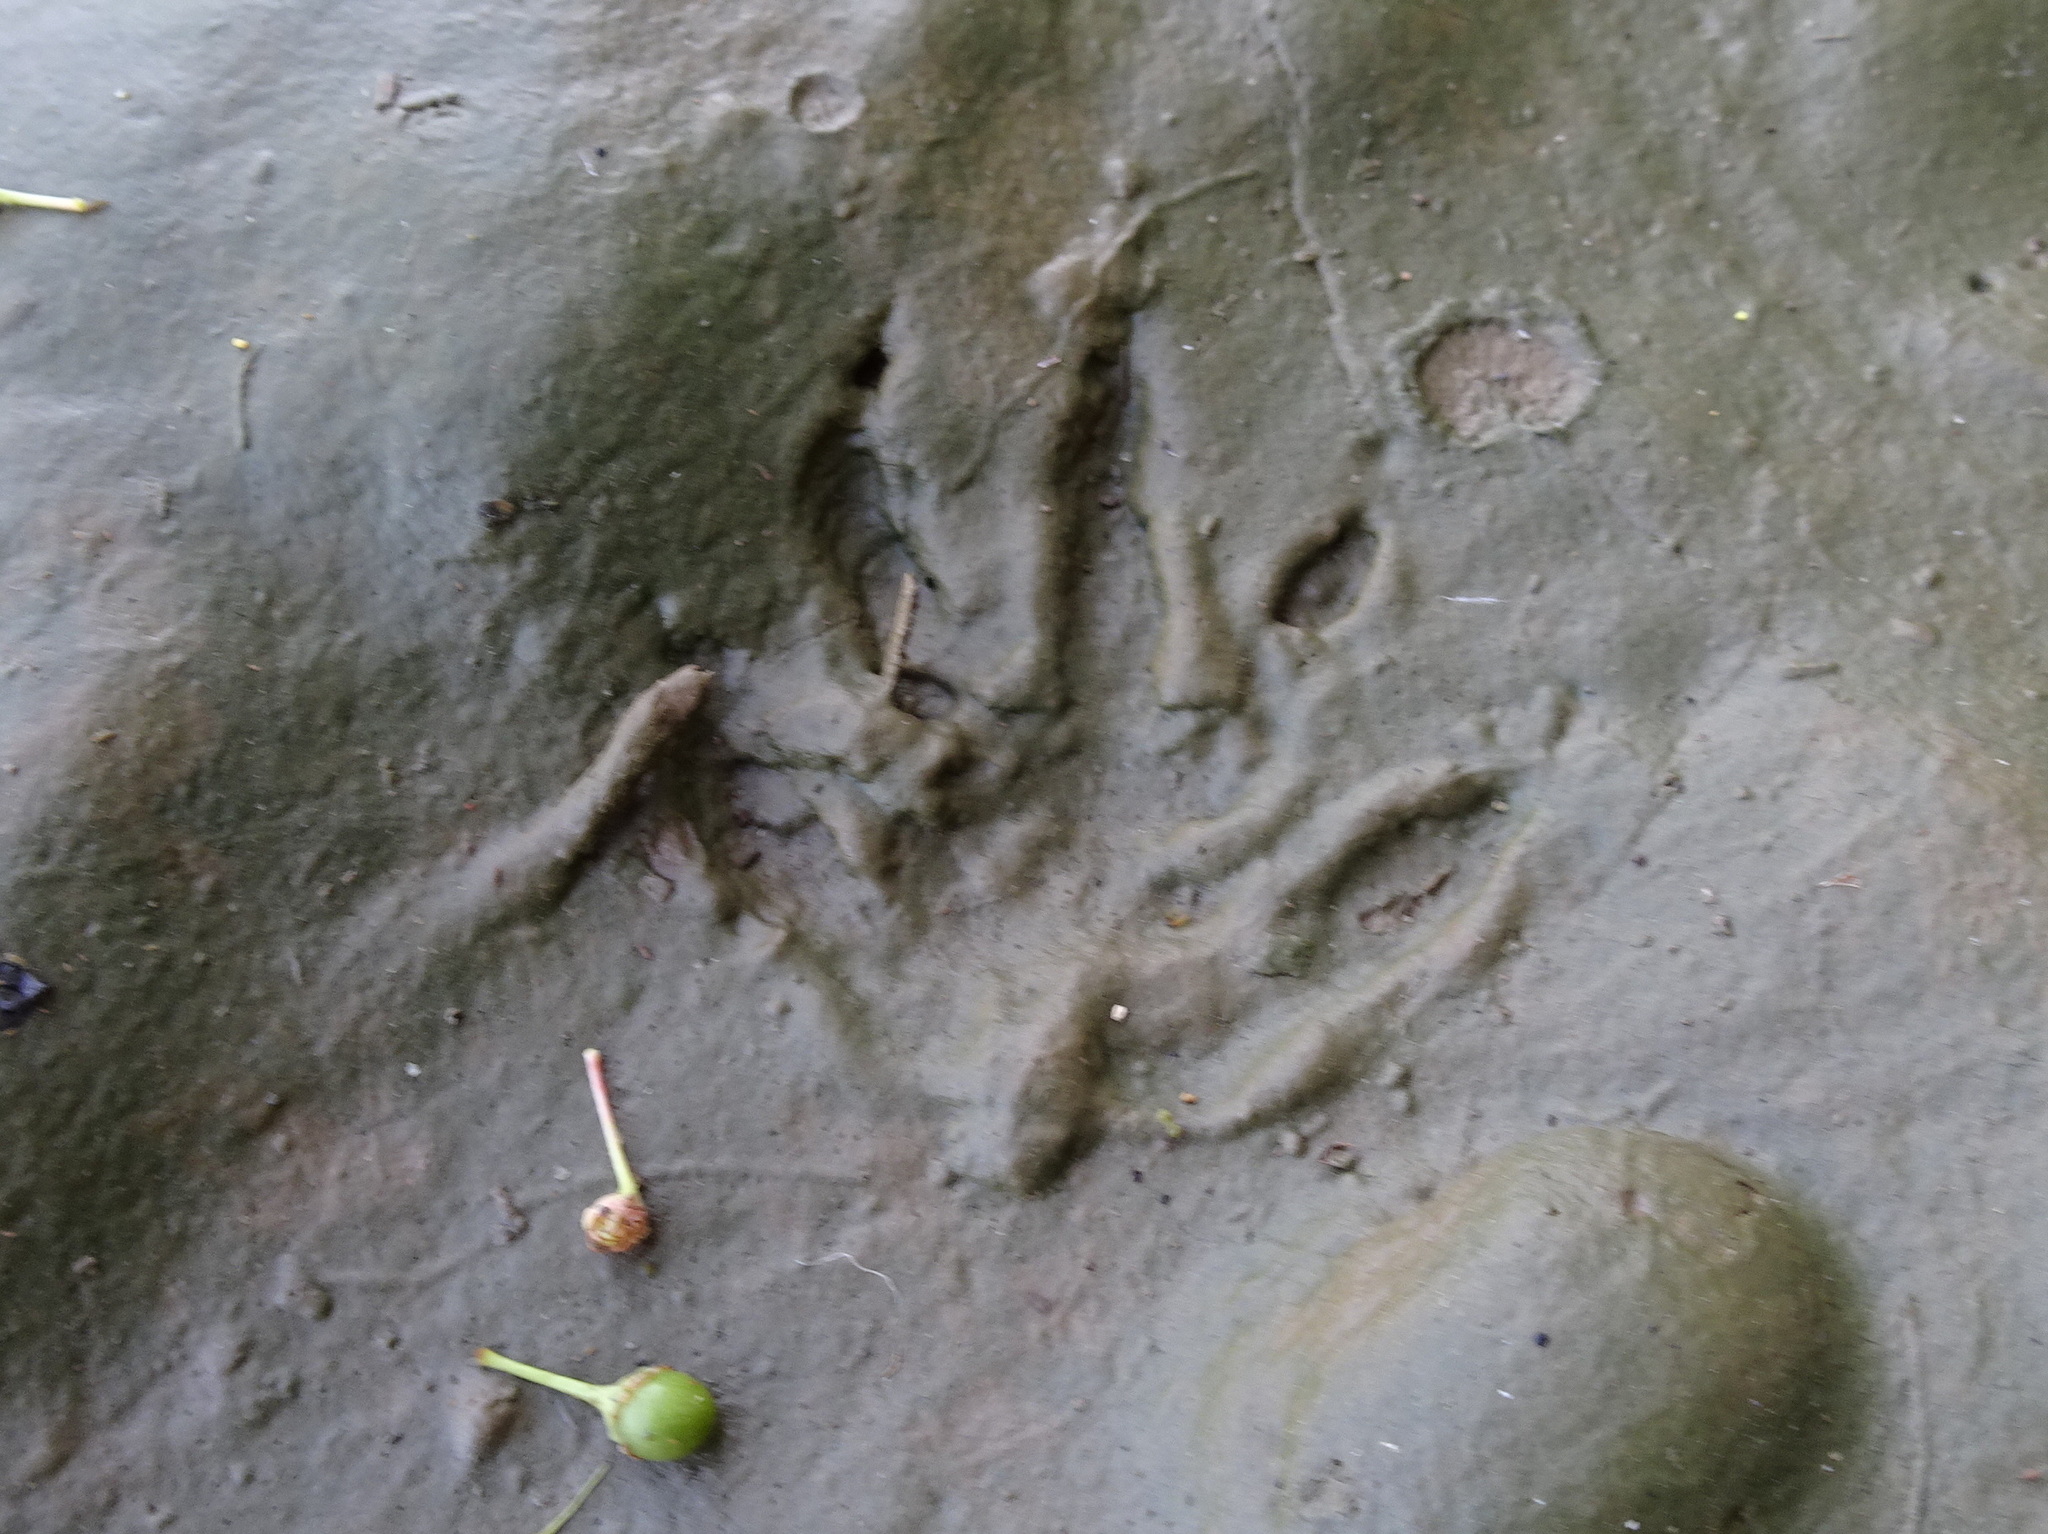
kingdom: Animalia
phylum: Chordata
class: Mammalia
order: Carnivora
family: Procyonidae
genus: Procyon
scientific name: Procyon lotor
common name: Raccoon
